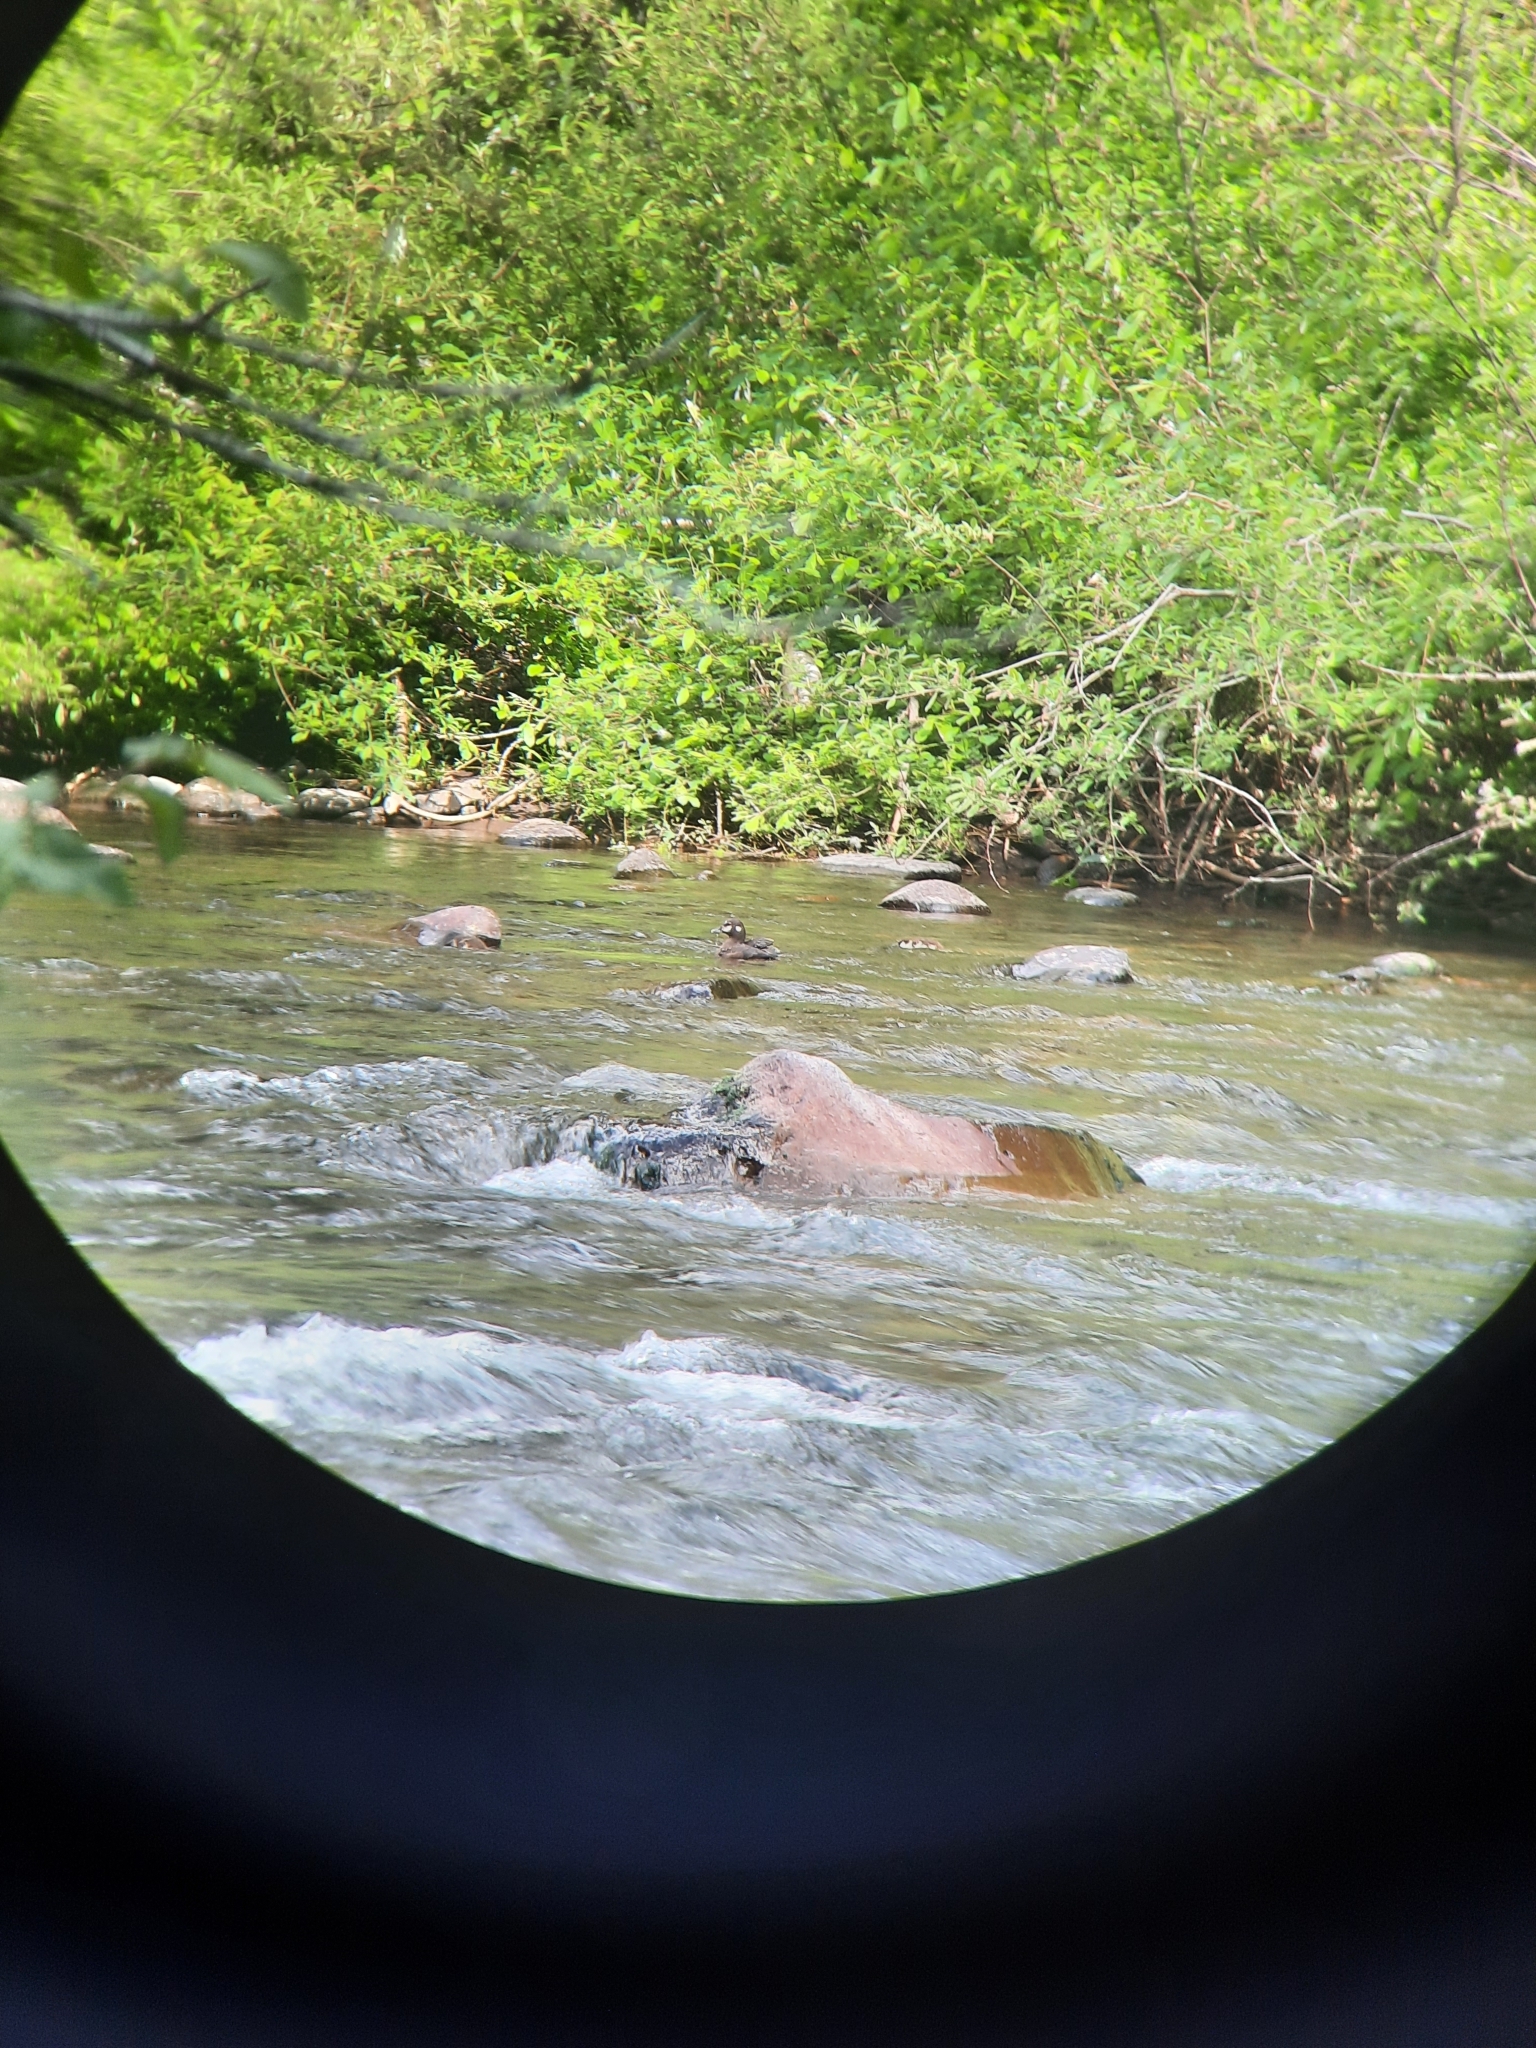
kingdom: Animalia
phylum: Chordata
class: Aves
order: Anseriformes
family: Anatidae
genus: Histrionicus
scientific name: Histrionicus histrionicus
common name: Harlequin duck
